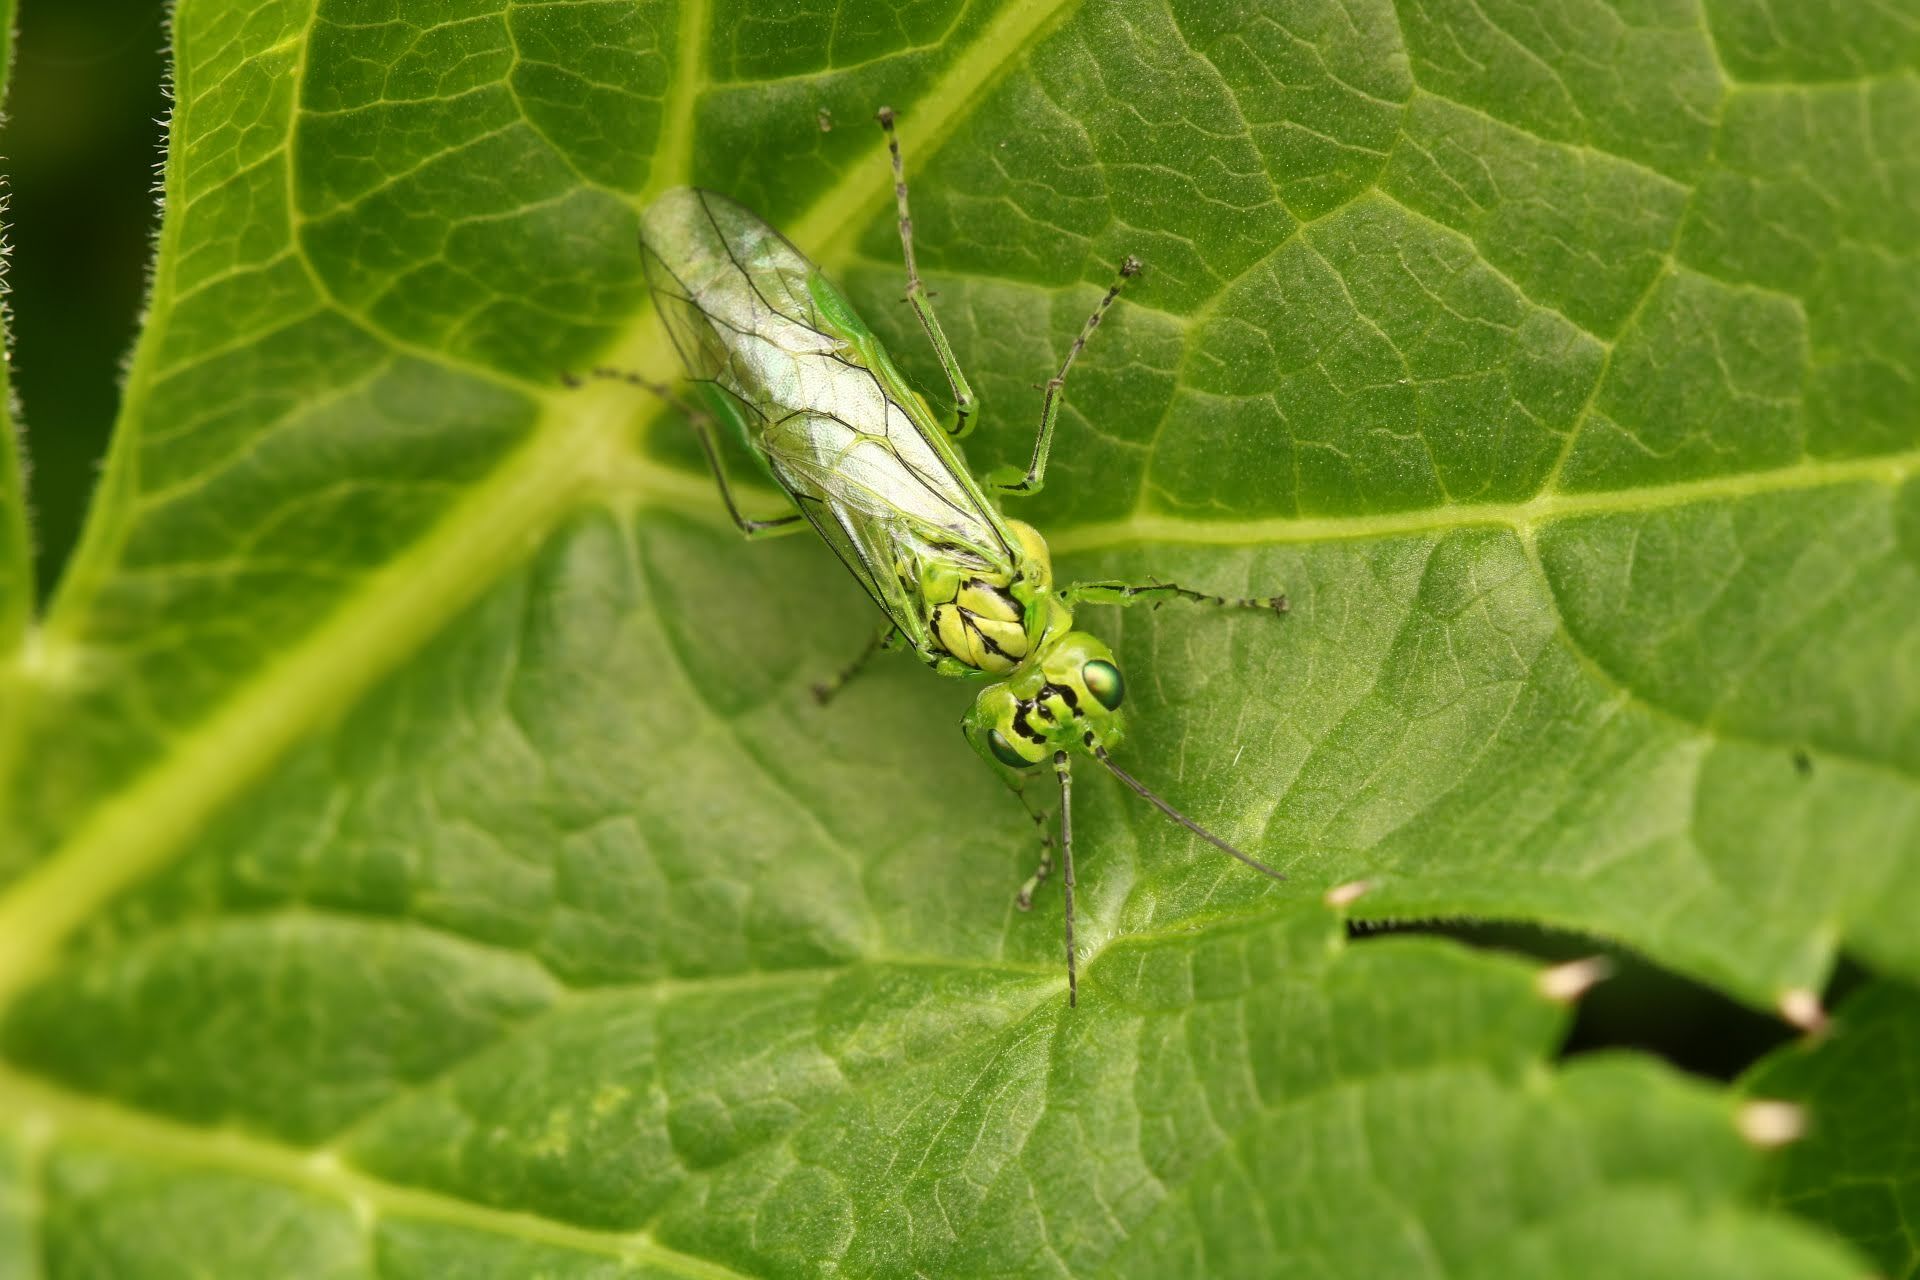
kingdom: Animalia
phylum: Arthropoda
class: Insecta
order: Hymenoptera
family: Tenthredinidae
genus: Rhogogaster
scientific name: Rhogogaster punctulata
